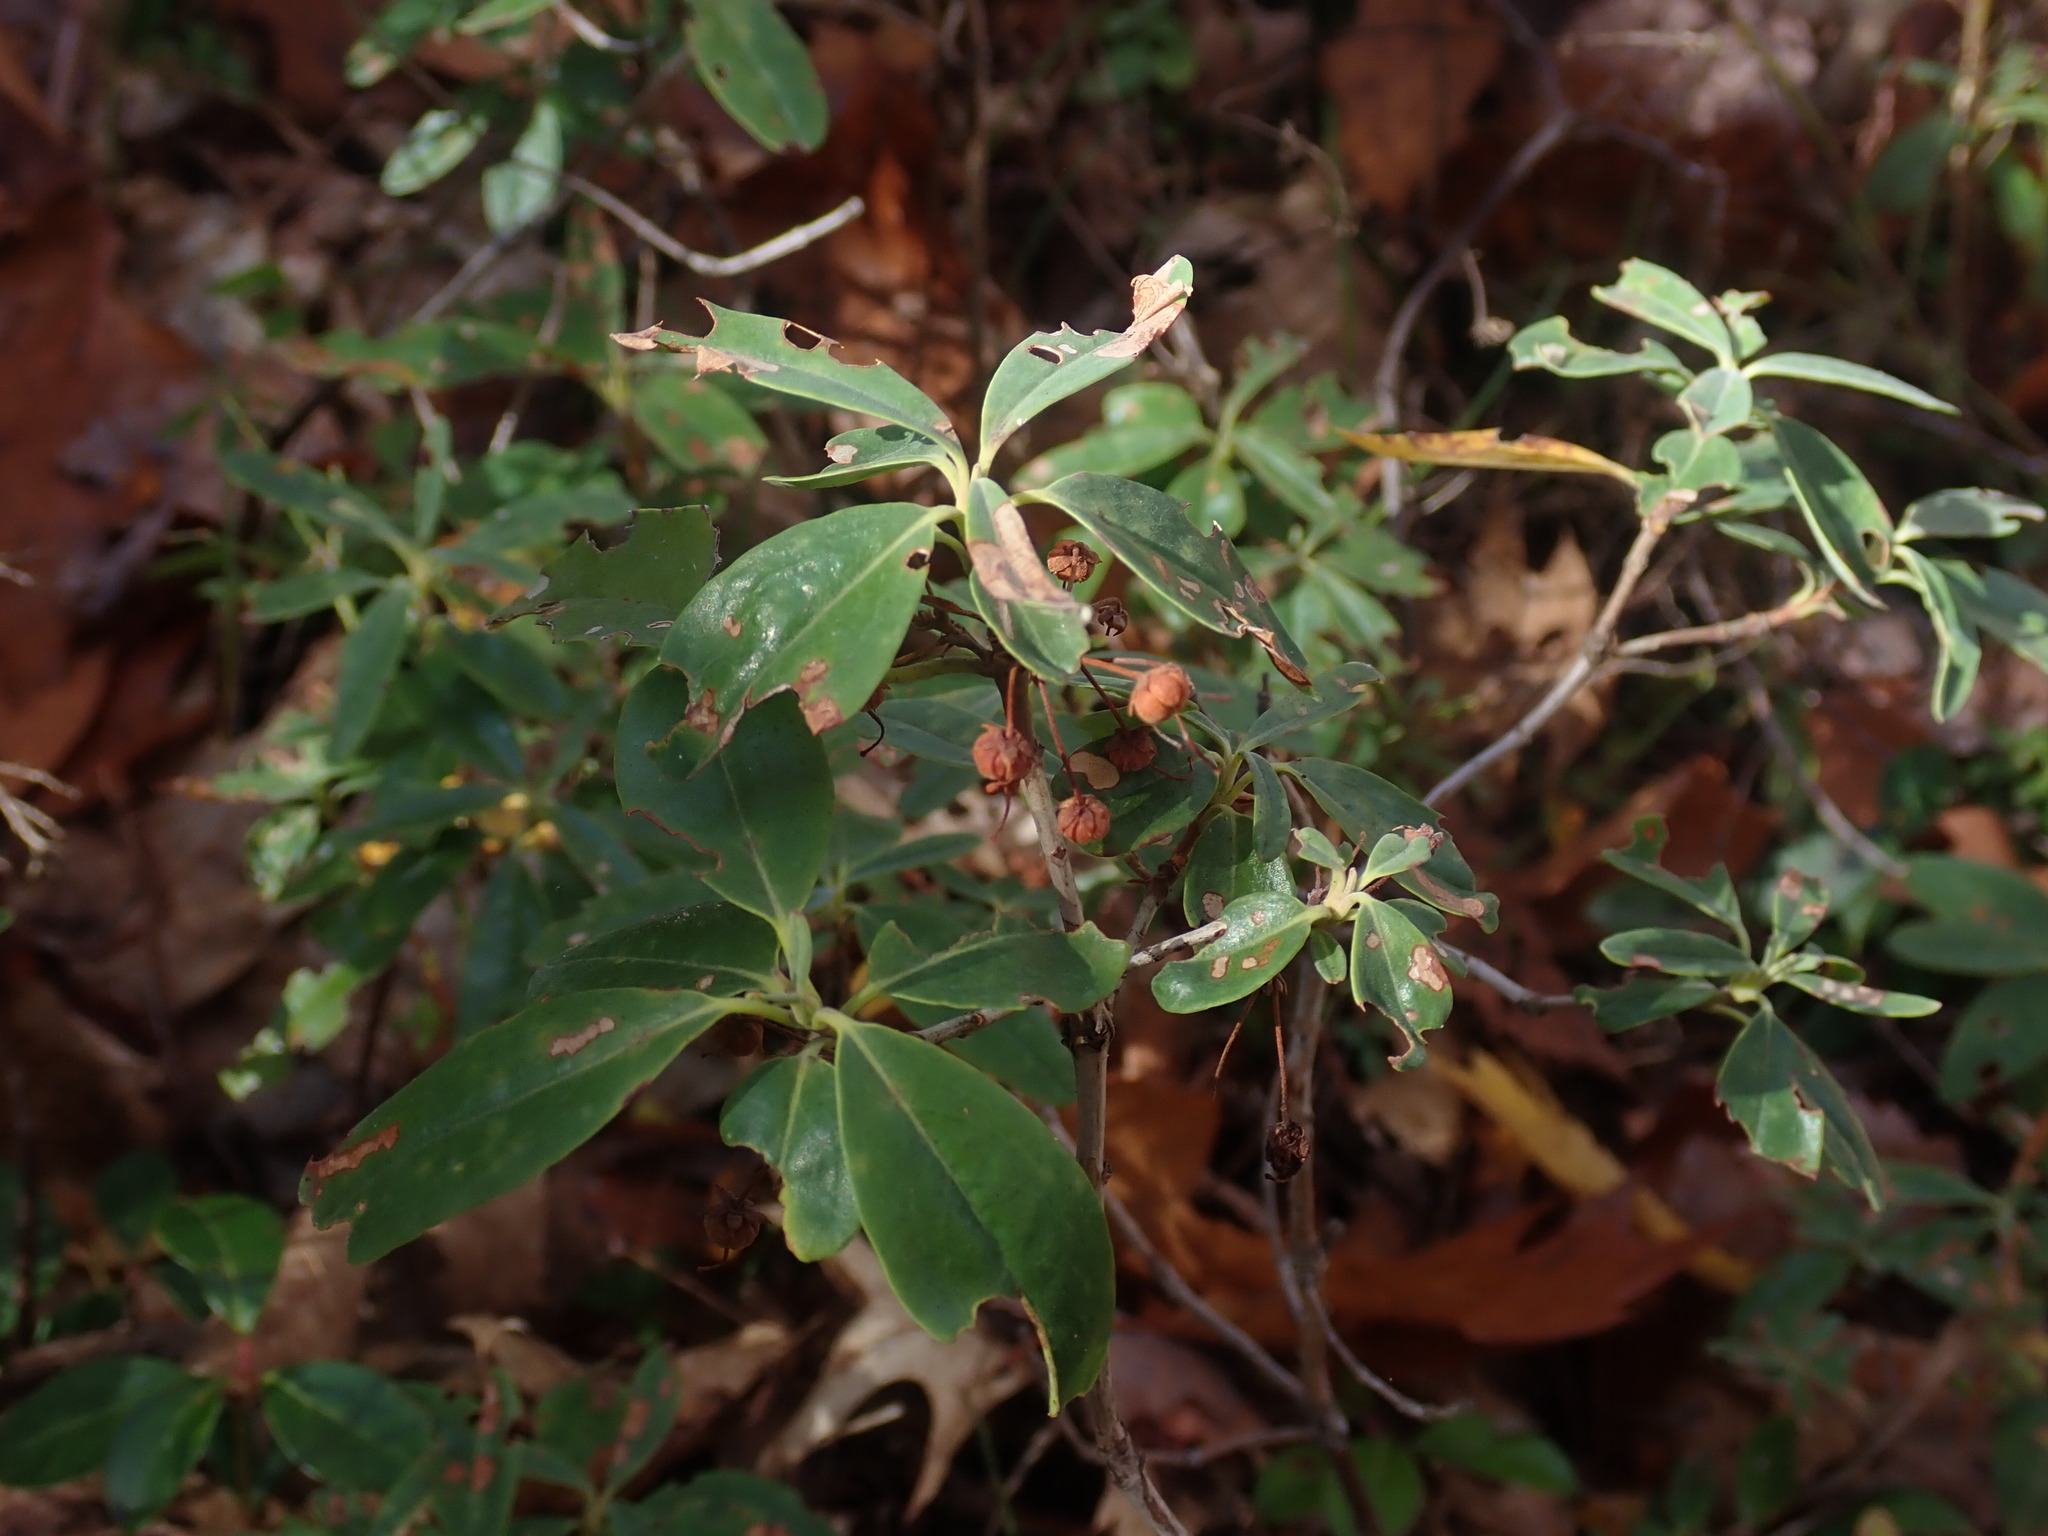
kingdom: Plantae
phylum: Tracheophyta
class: Magnoliopsida
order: Ericales
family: Ericaceae
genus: Kalmia
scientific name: Kalmia angustifolia
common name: Sheep-laurel
